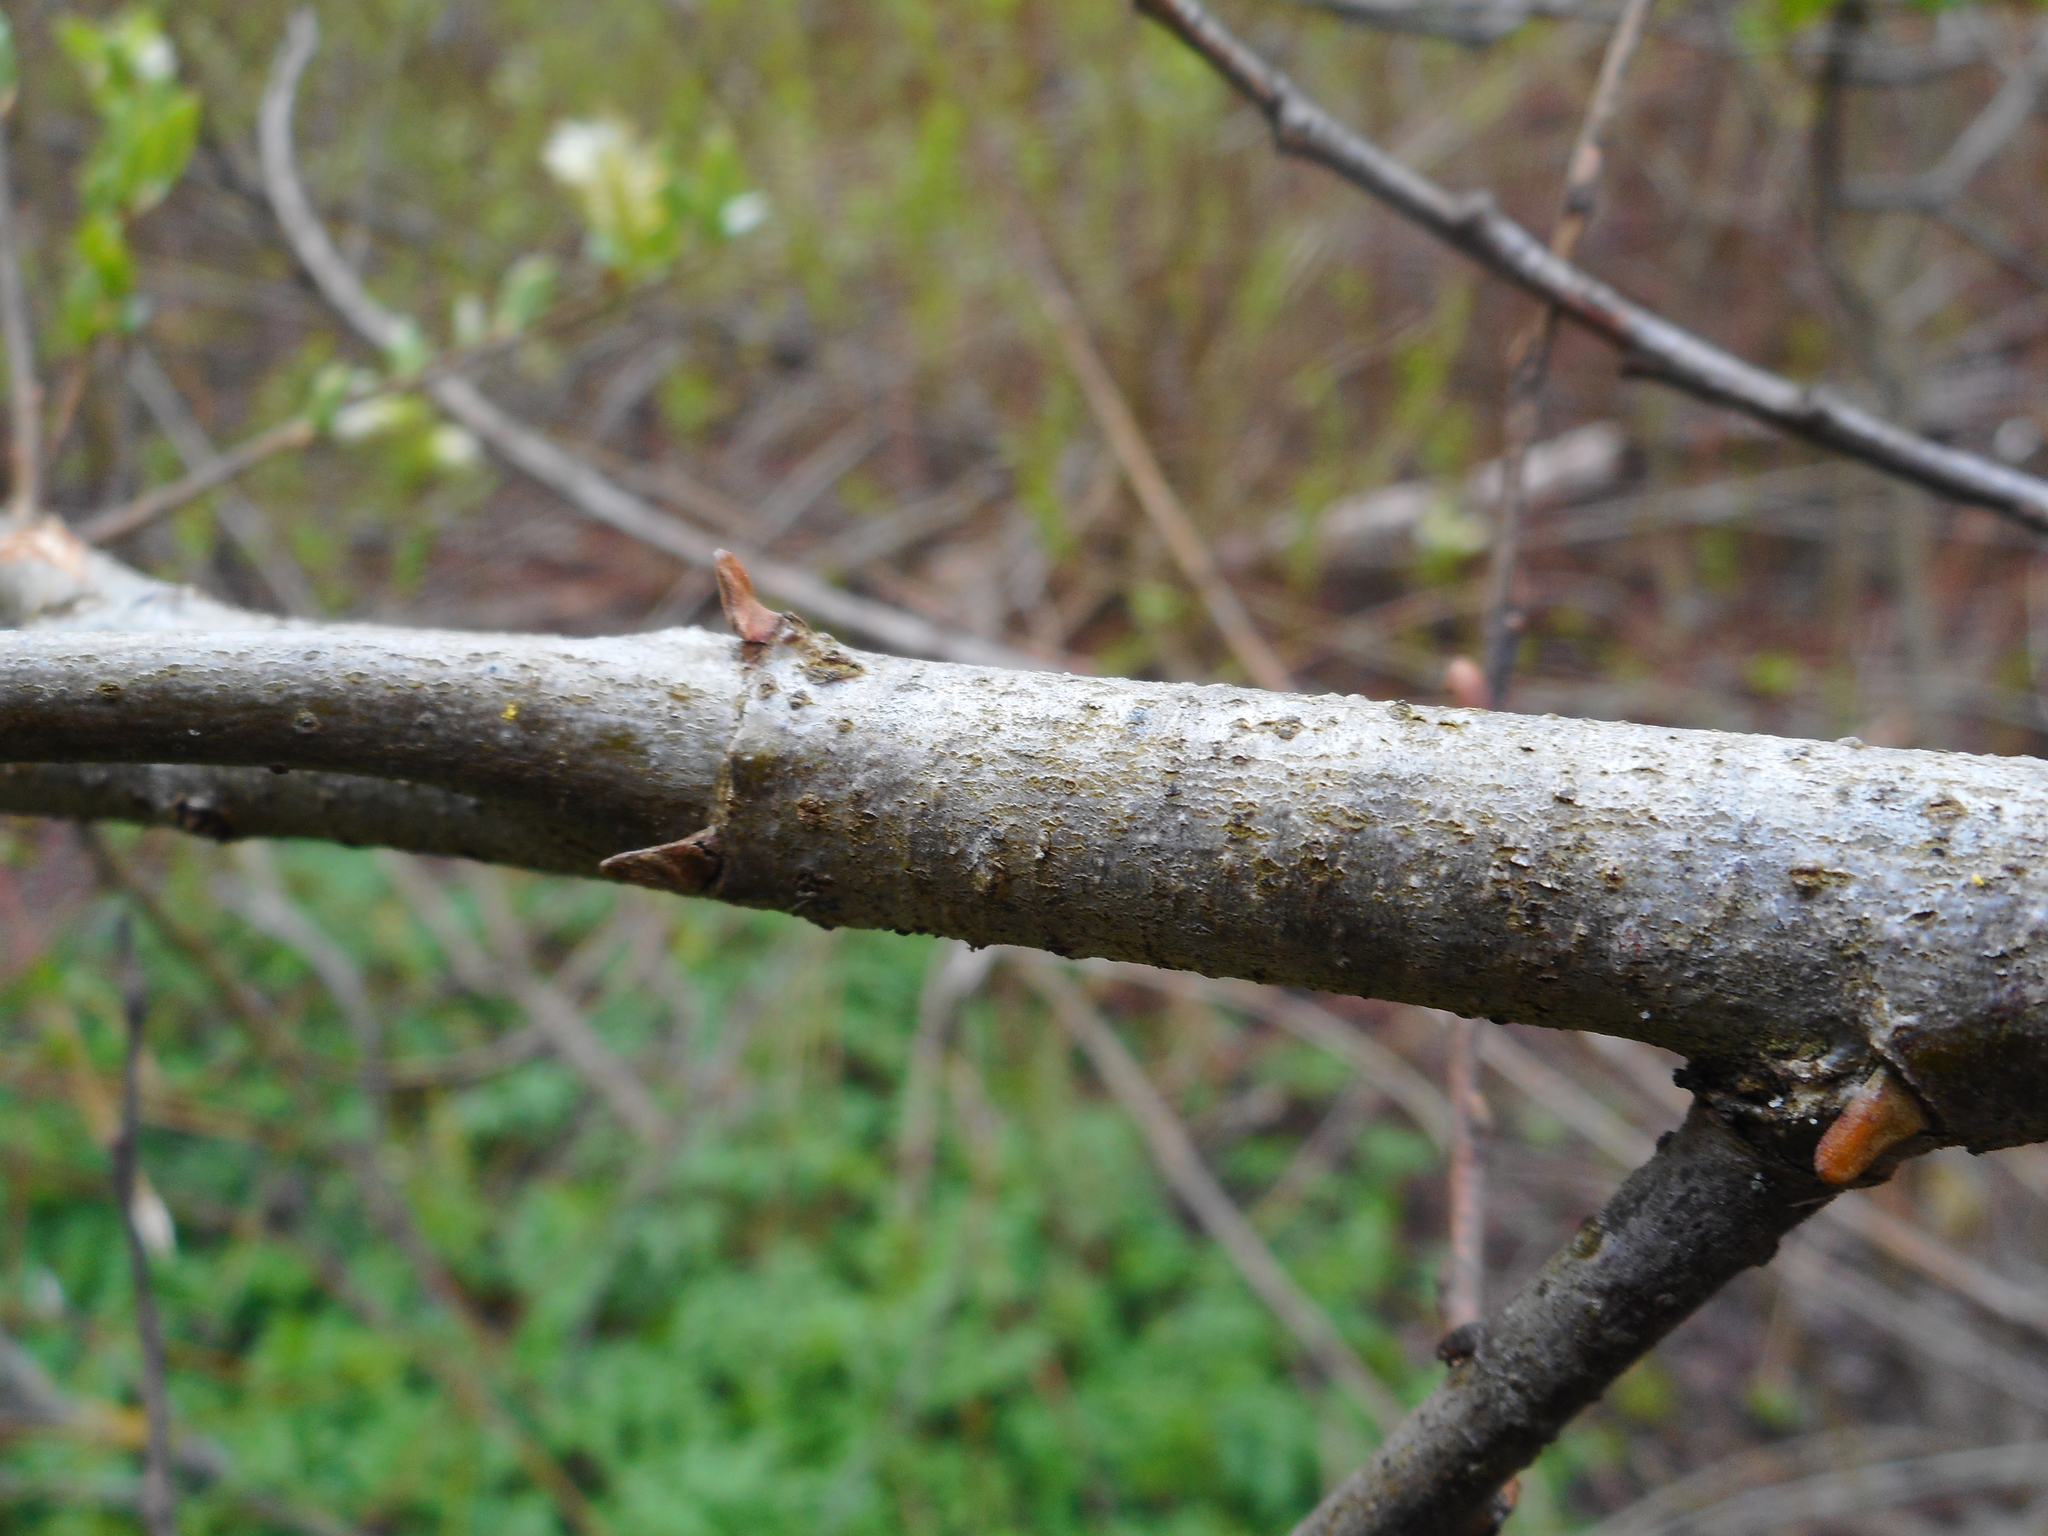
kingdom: Plantae
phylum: Tracheophyta
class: Magnoliopsida
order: Malpighiales
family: Salicaceae
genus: Salix
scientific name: Salix myrsinifolia
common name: Dark-leaved willow
